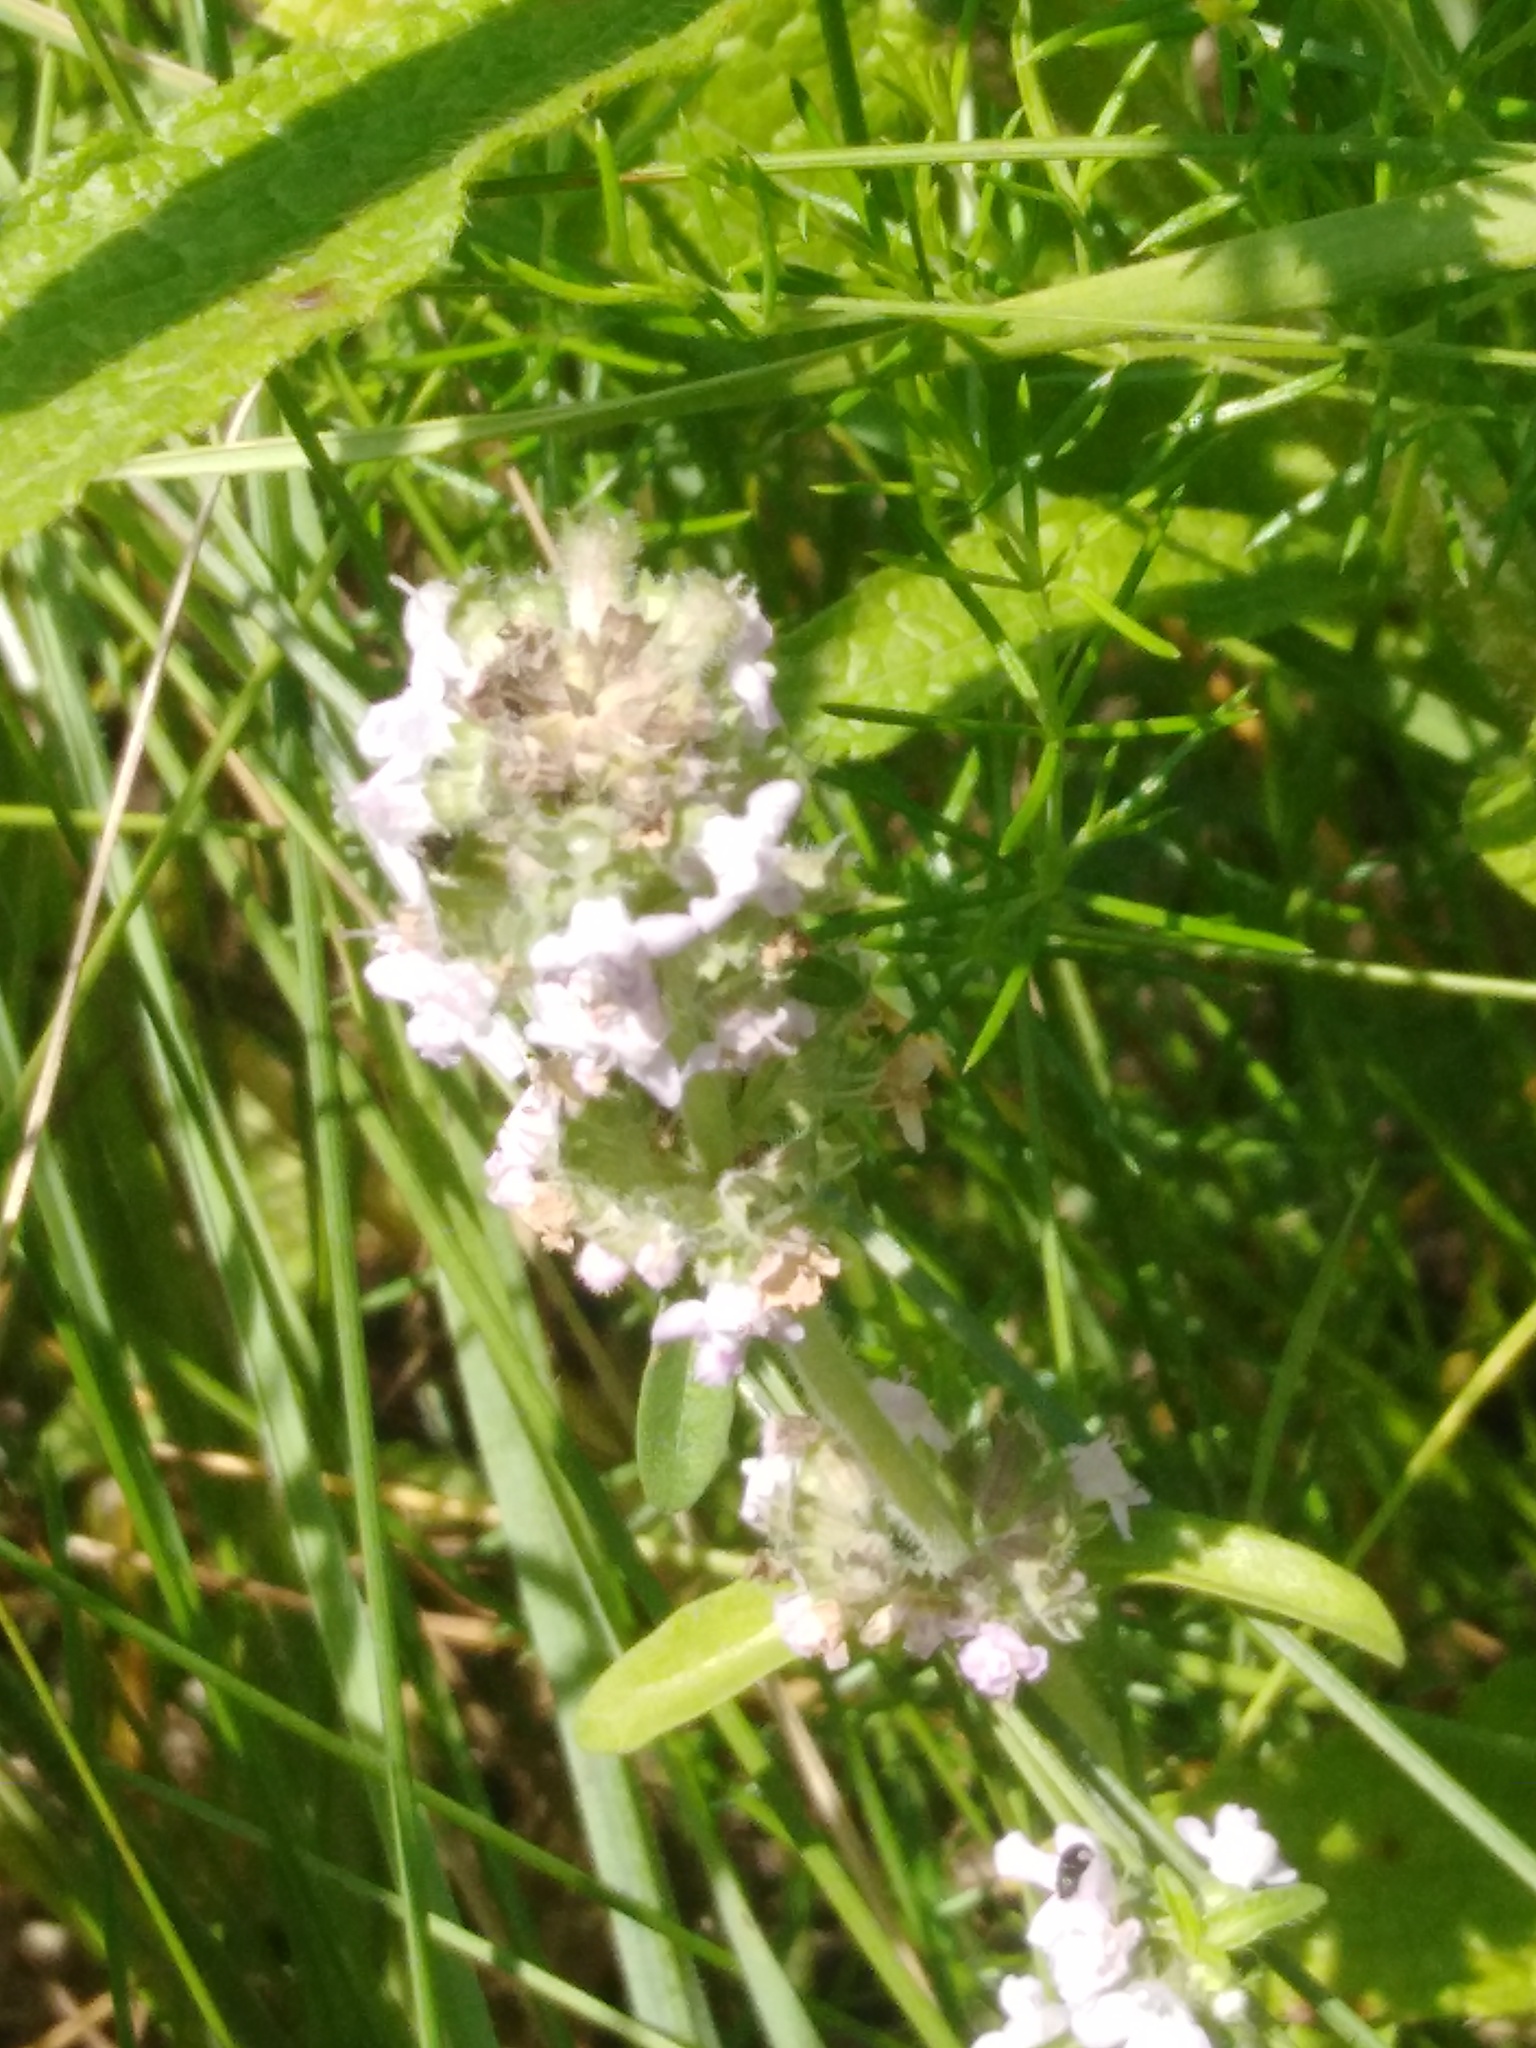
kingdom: Plantae
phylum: Tracheophyta
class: Magnoliopsida
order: Lamiales
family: Lamiaceae
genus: Thymus
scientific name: Thymus pannonicus
